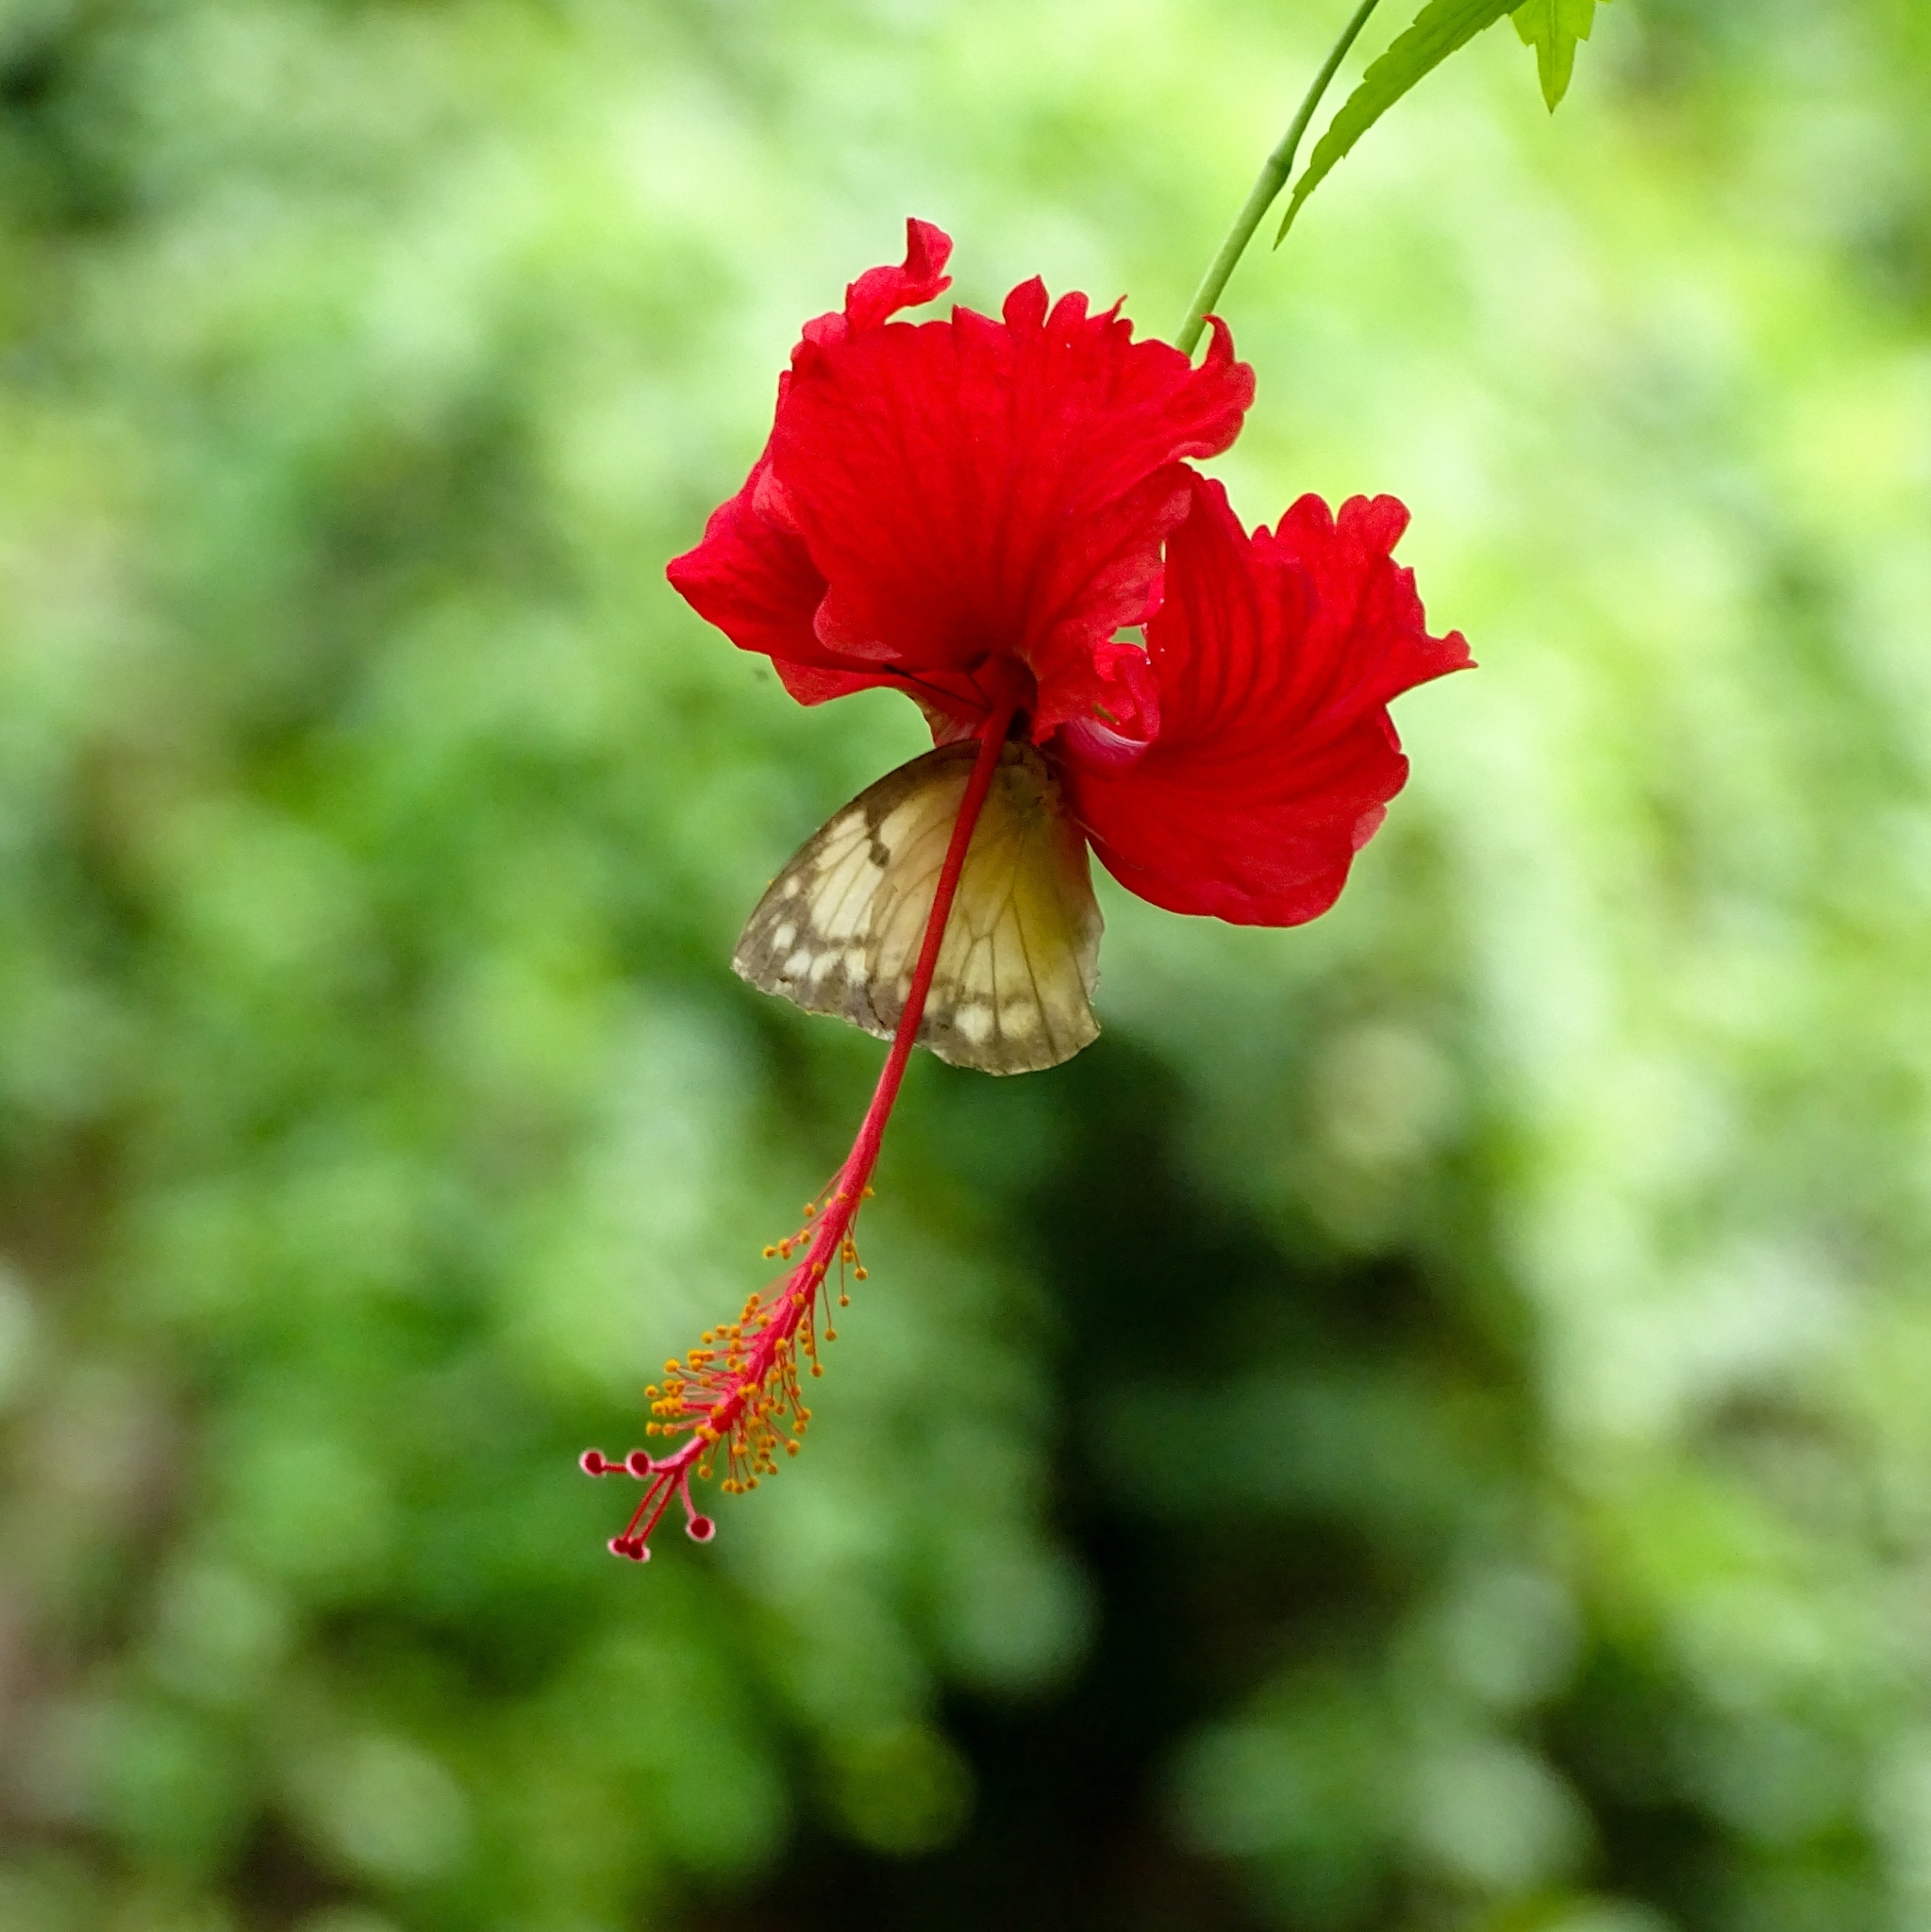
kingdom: Animalia
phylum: Arthropoda
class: Insecta
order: Lepidoptera
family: Pieridae
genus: Catopsilia
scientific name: Catopsilia pomona
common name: Common emigrant
